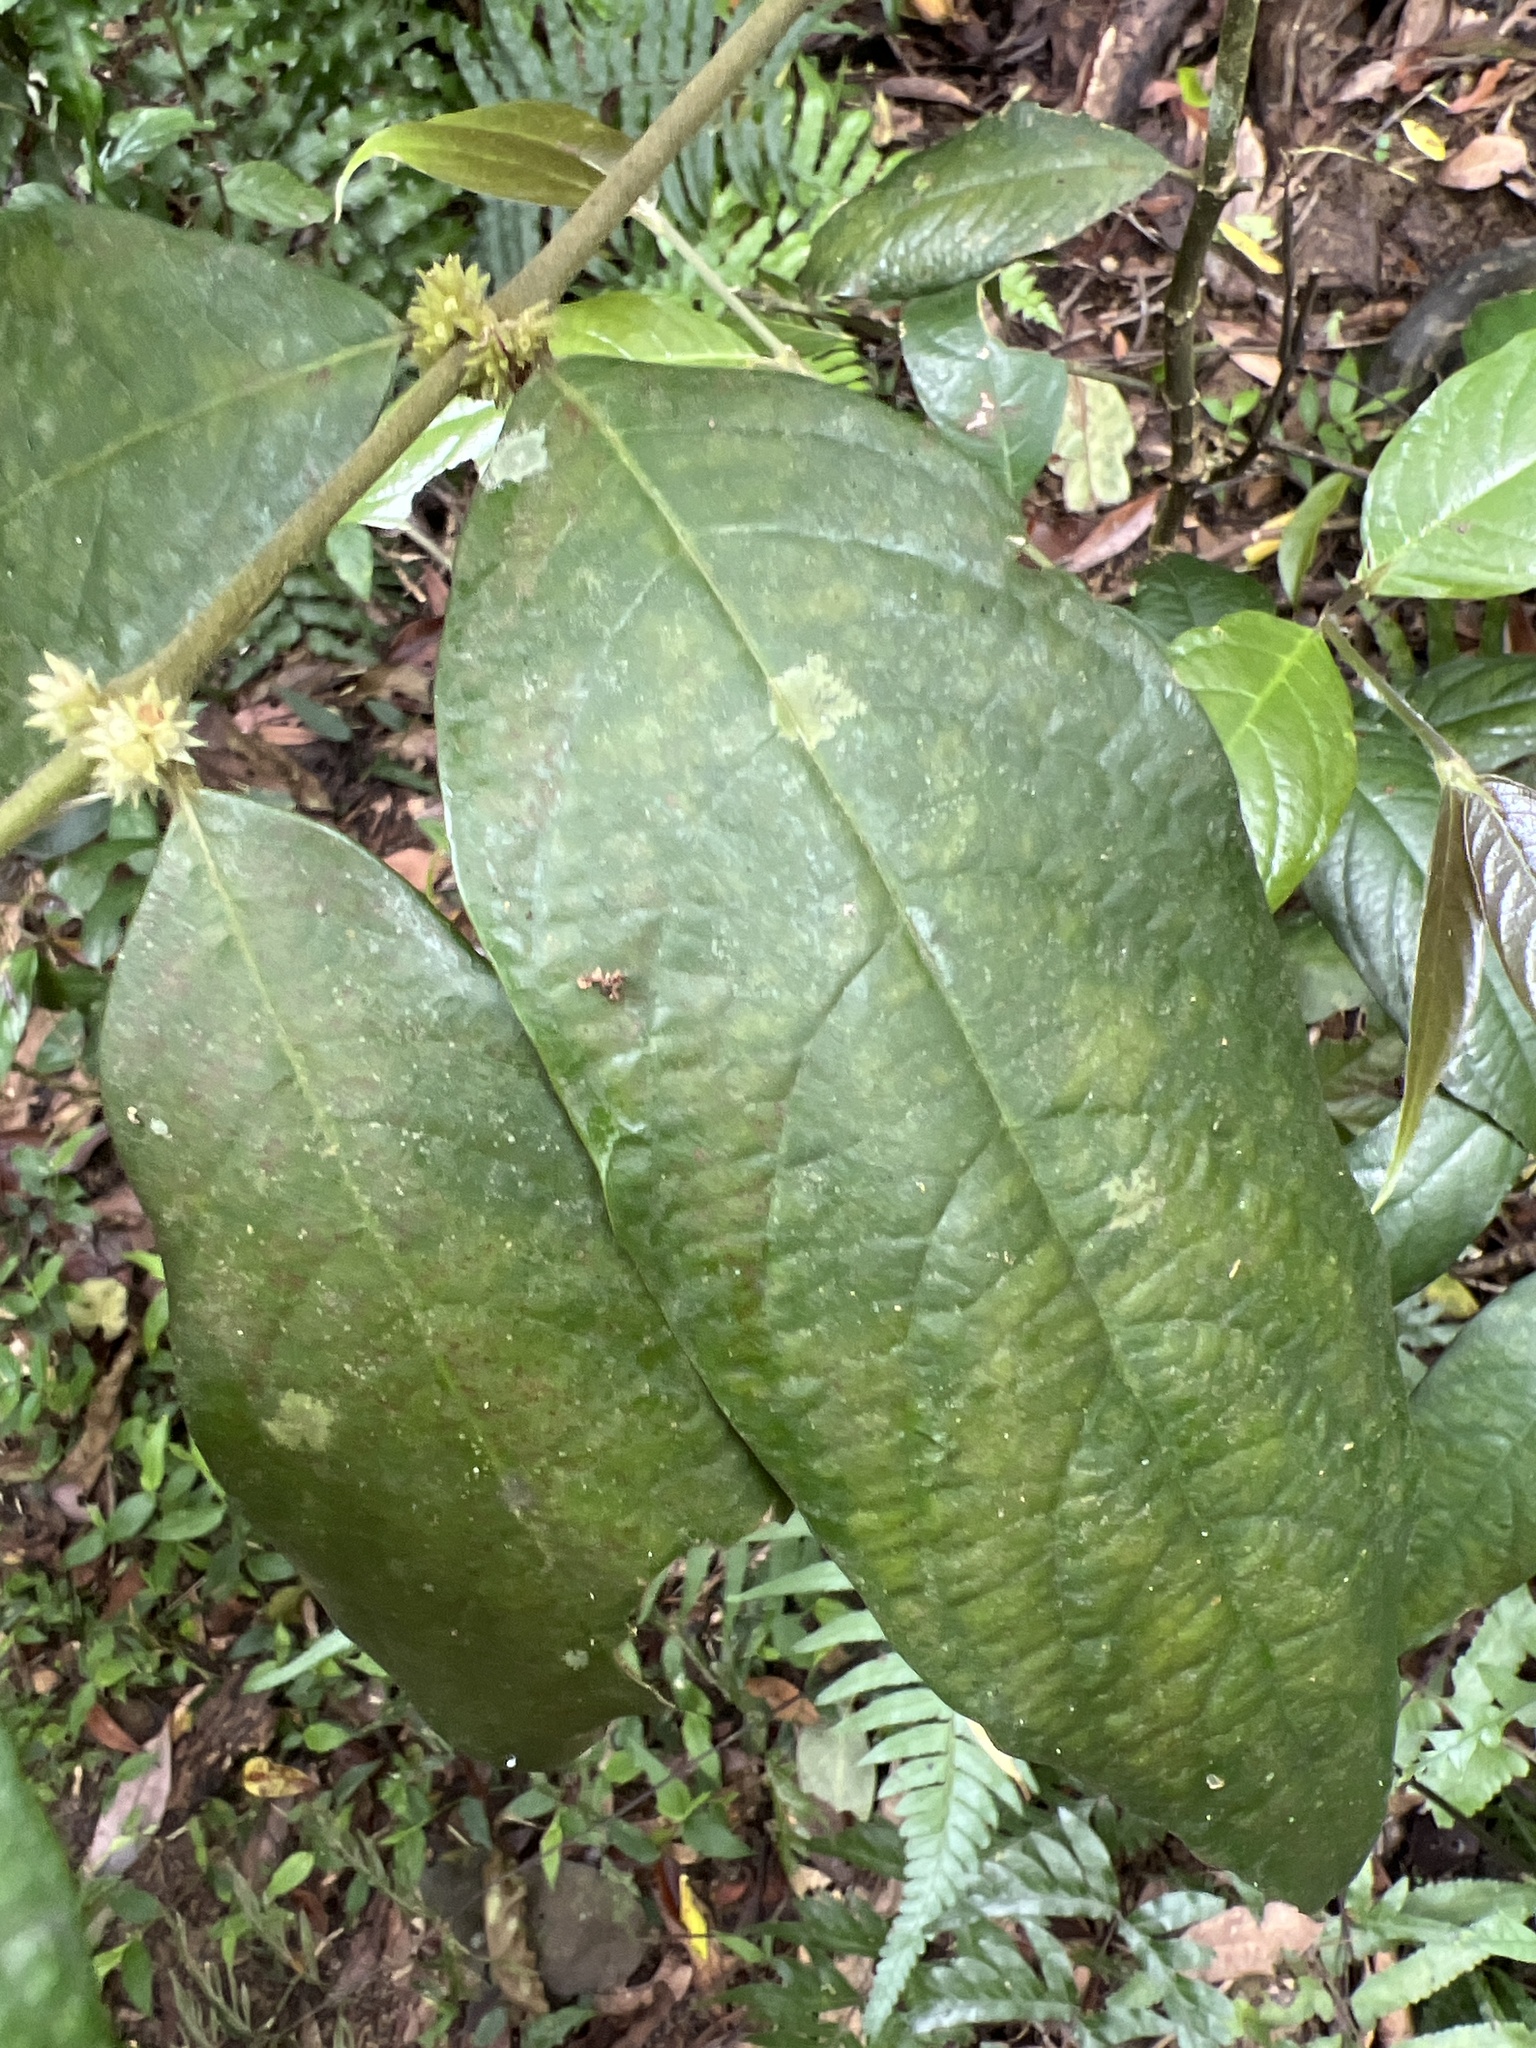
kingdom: Plantae
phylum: Tracheophyta
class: Magnoliopsida
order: Gentianales
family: Rubiaceae
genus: Lasianthus
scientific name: Lasianthus formosensis
